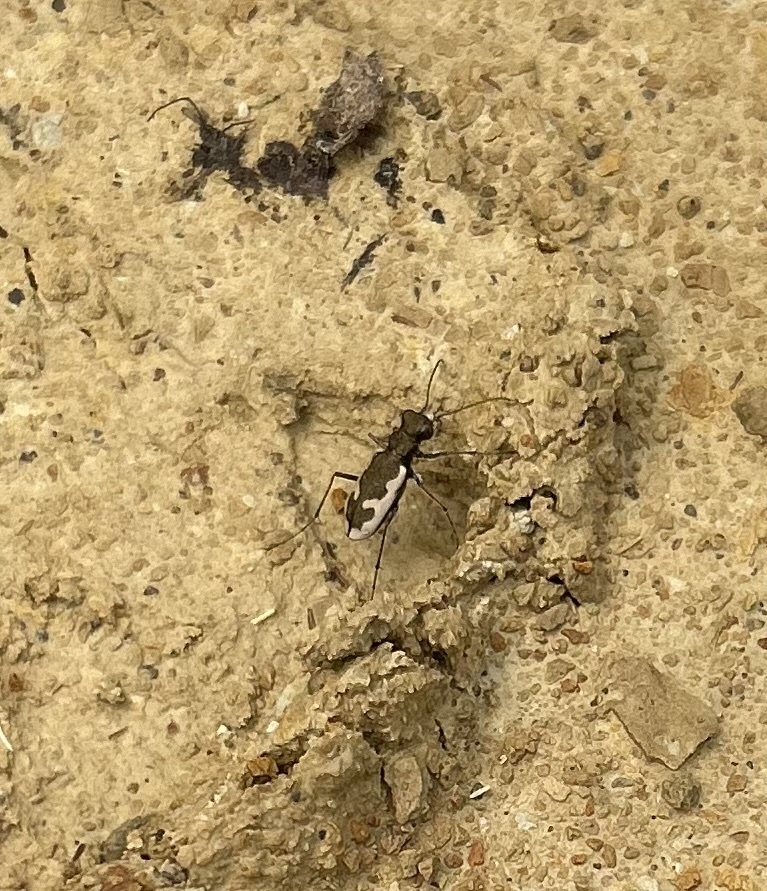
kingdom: Animalia
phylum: Arthropoda
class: Insecta
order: Coleoptera
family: Carabidae
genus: Neocicindela
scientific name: Neocicindela latecincta
